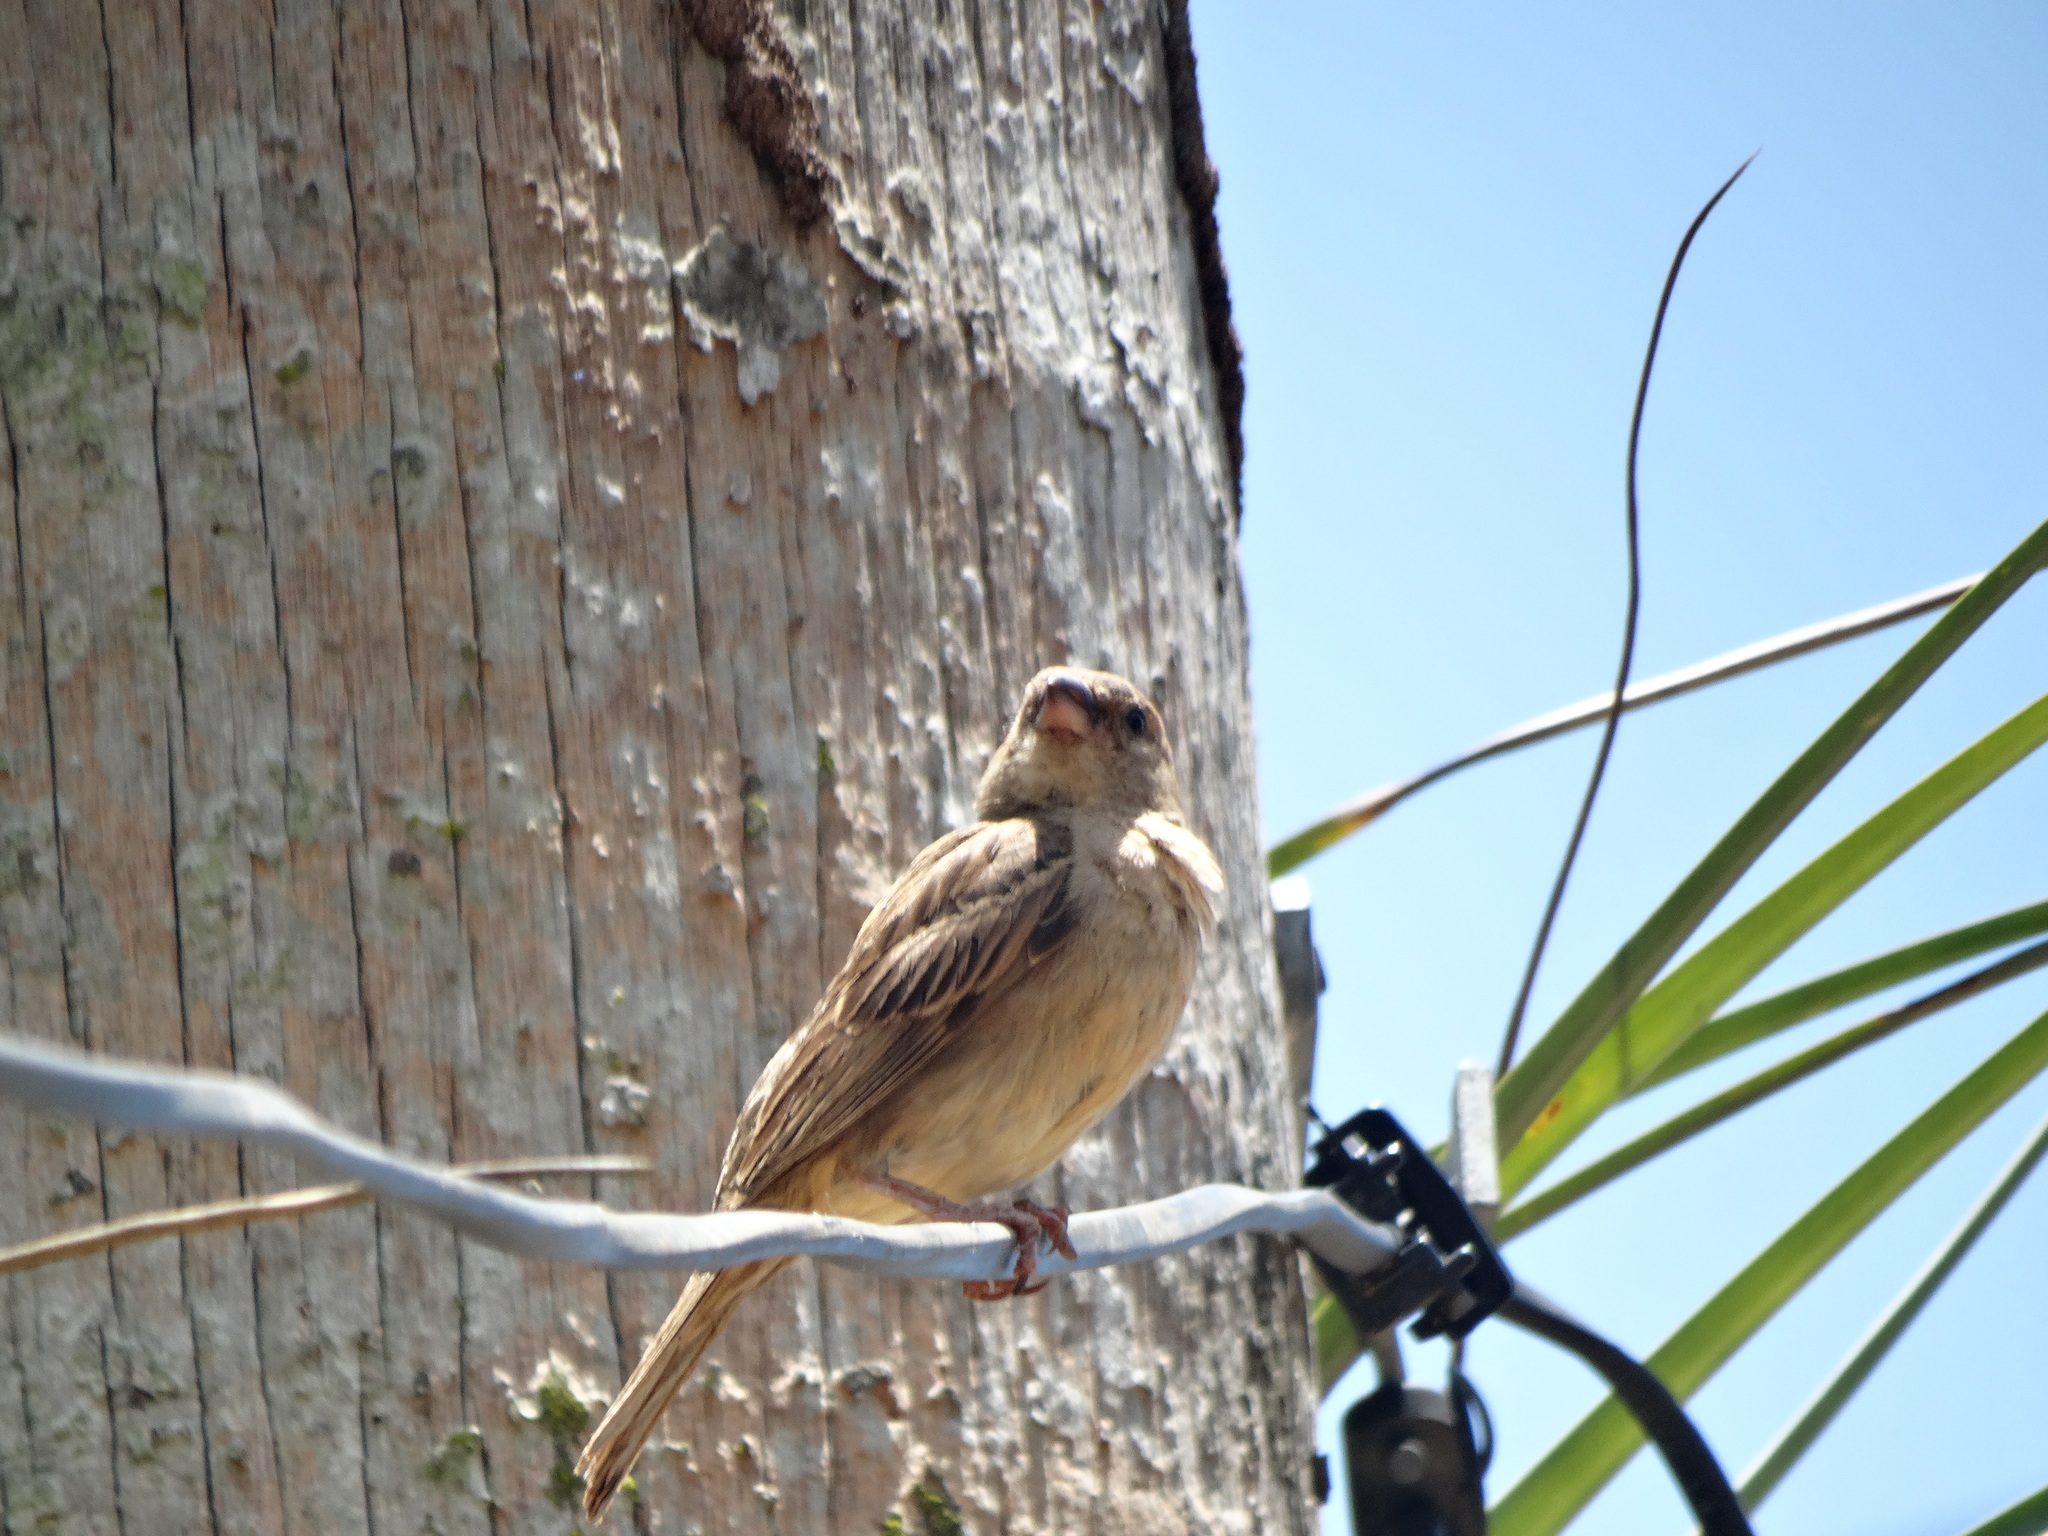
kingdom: Animalia
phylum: Chordata
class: Aves
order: Passeriformes
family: Passeridae
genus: Passer
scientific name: Passer domesticus
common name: House sparrow
